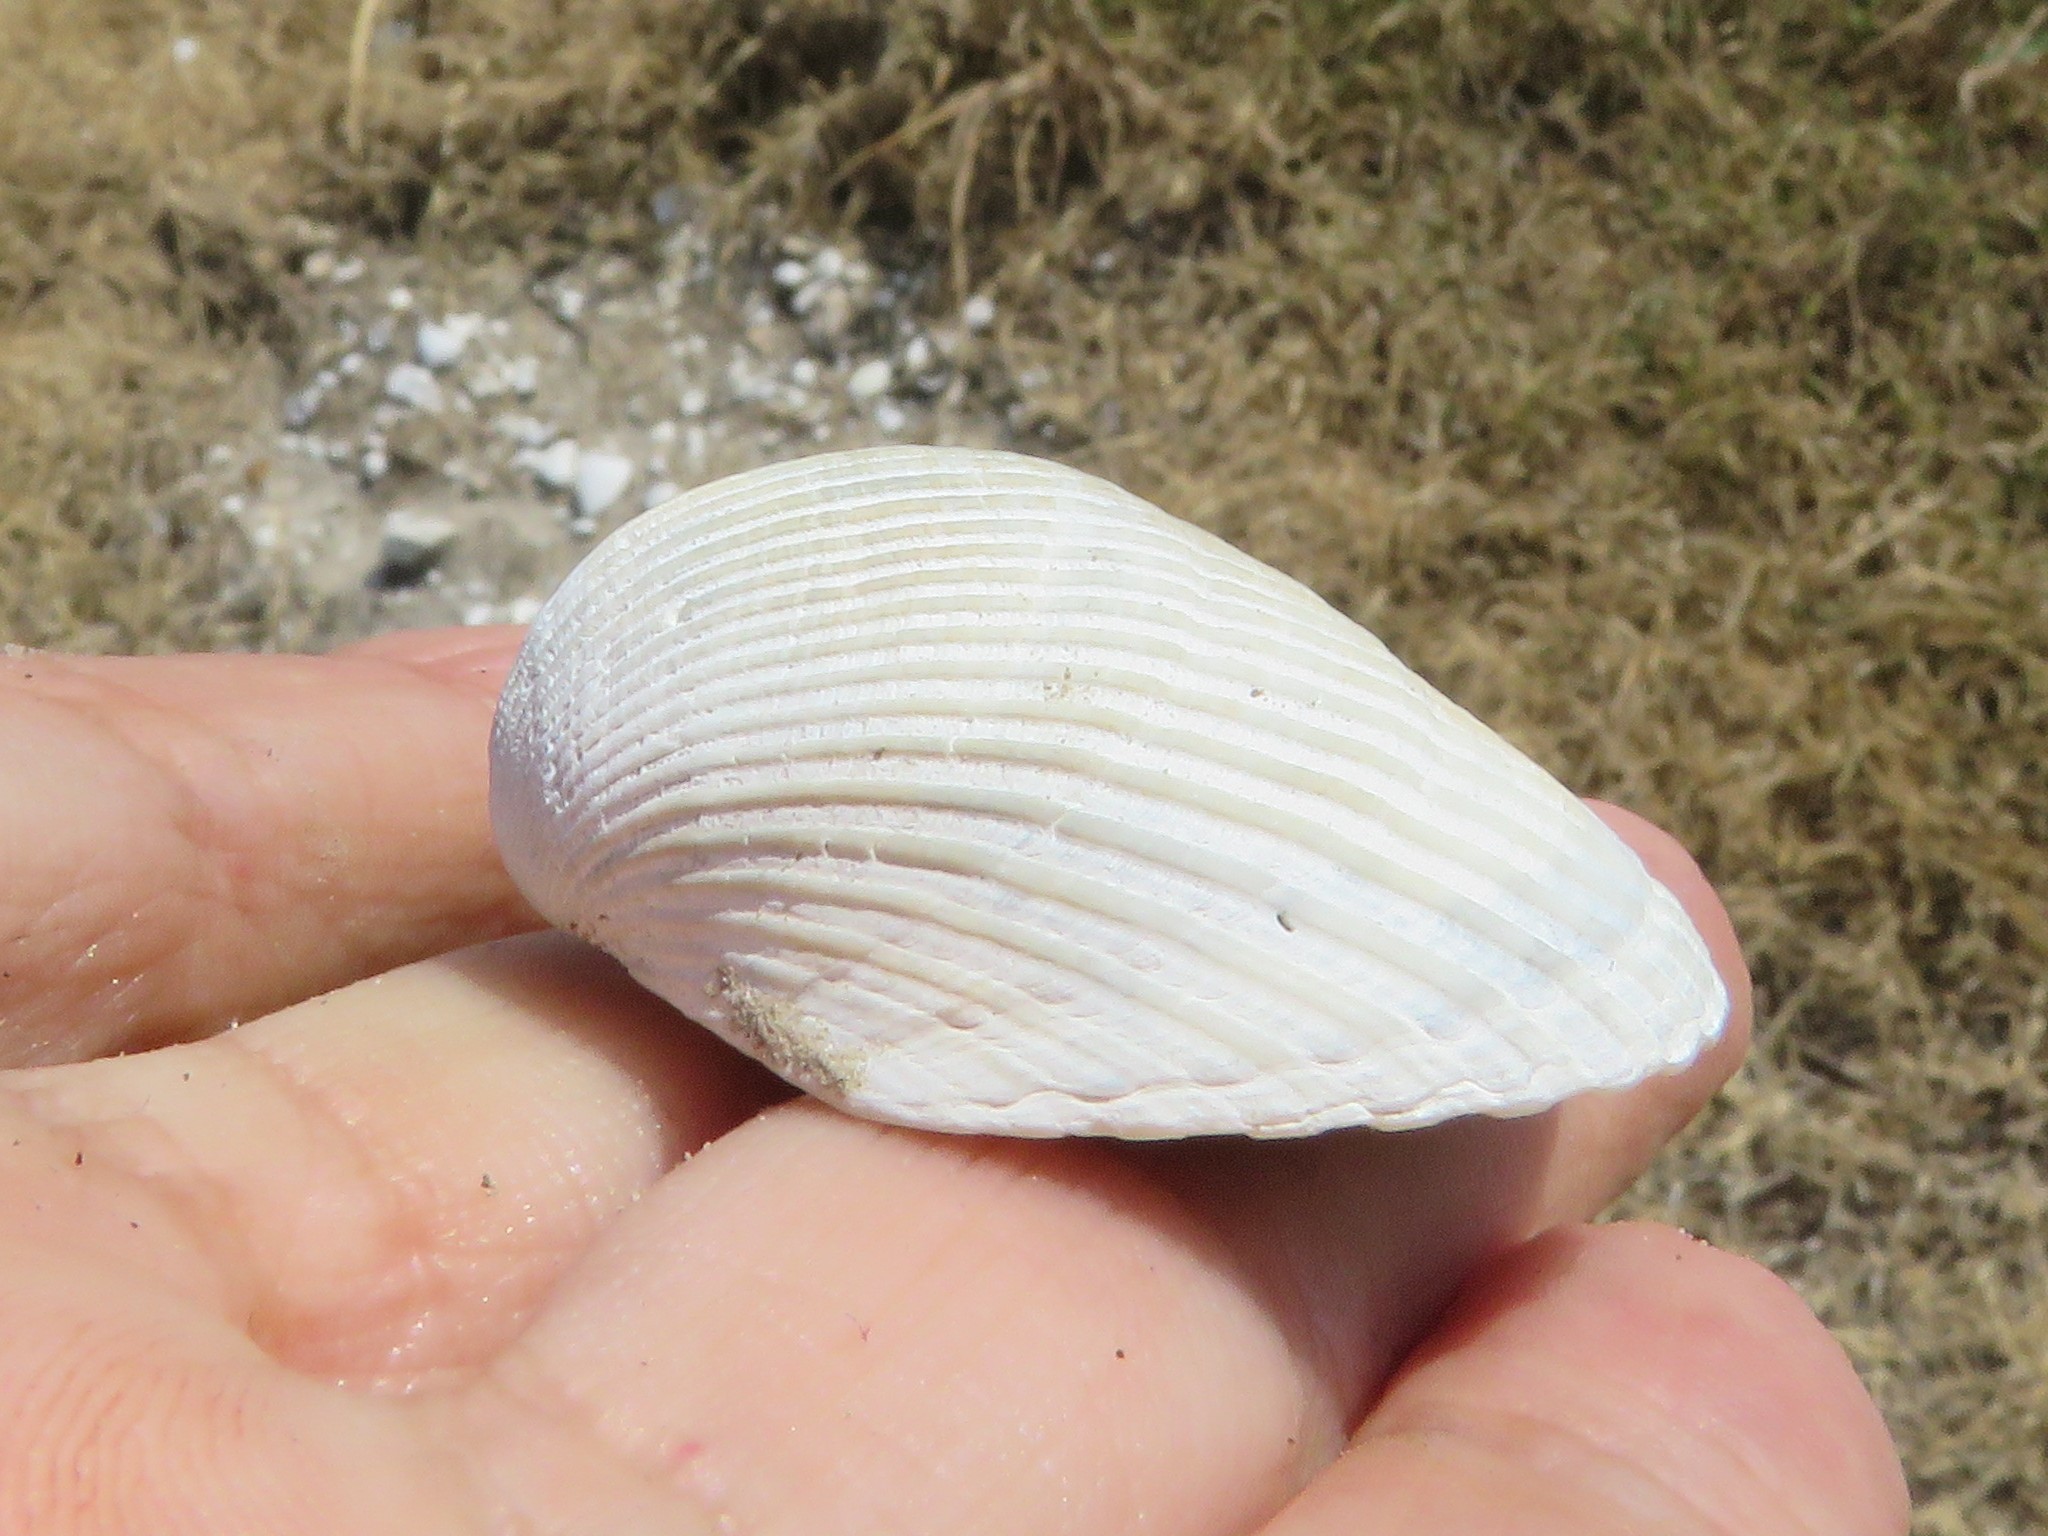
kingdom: Animalia
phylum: Mollusca
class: Bivalvia
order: Arcida
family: Noetiidae
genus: Noetia
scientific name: Noetia ponderosa
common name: Ponderous ark
